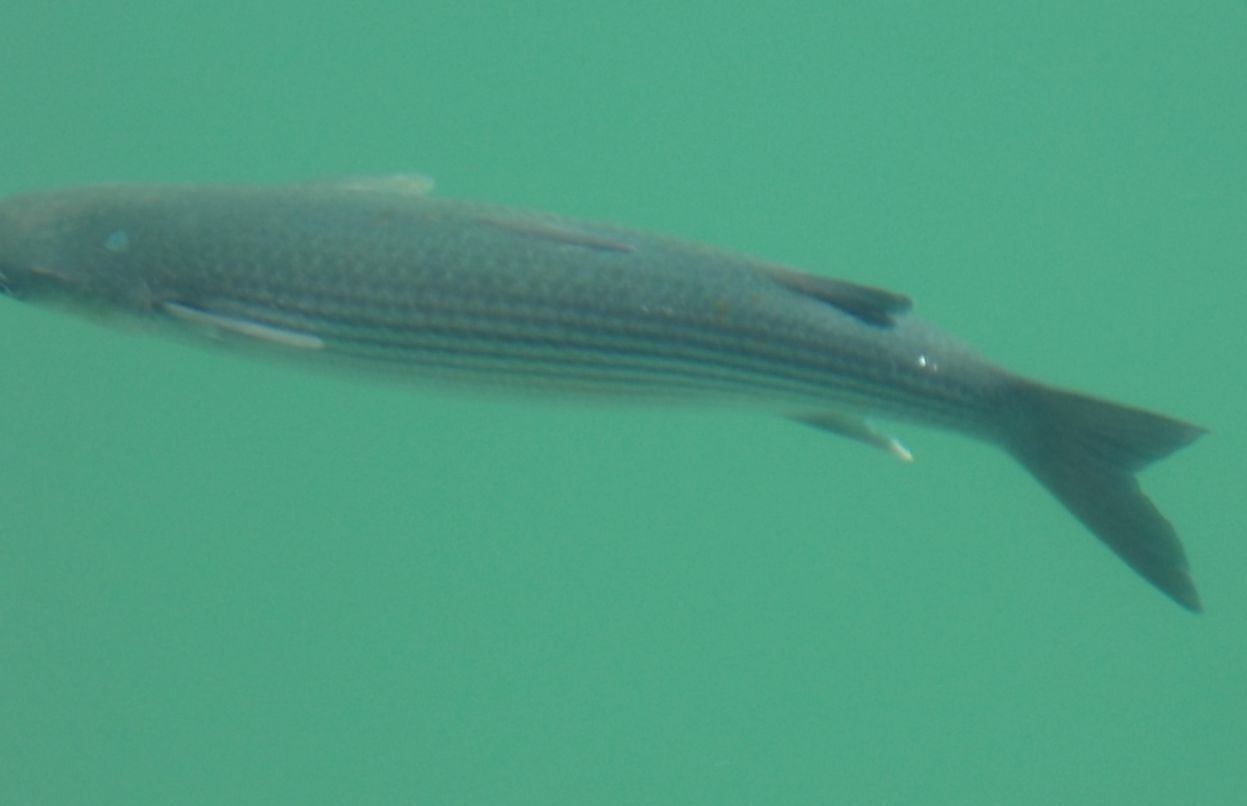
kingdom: Animalia
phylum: Chordata
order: Mugiliformes
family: Mugilidae
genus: Chelon
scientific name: Chelon labrosus
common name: Thick-lipped mullet
